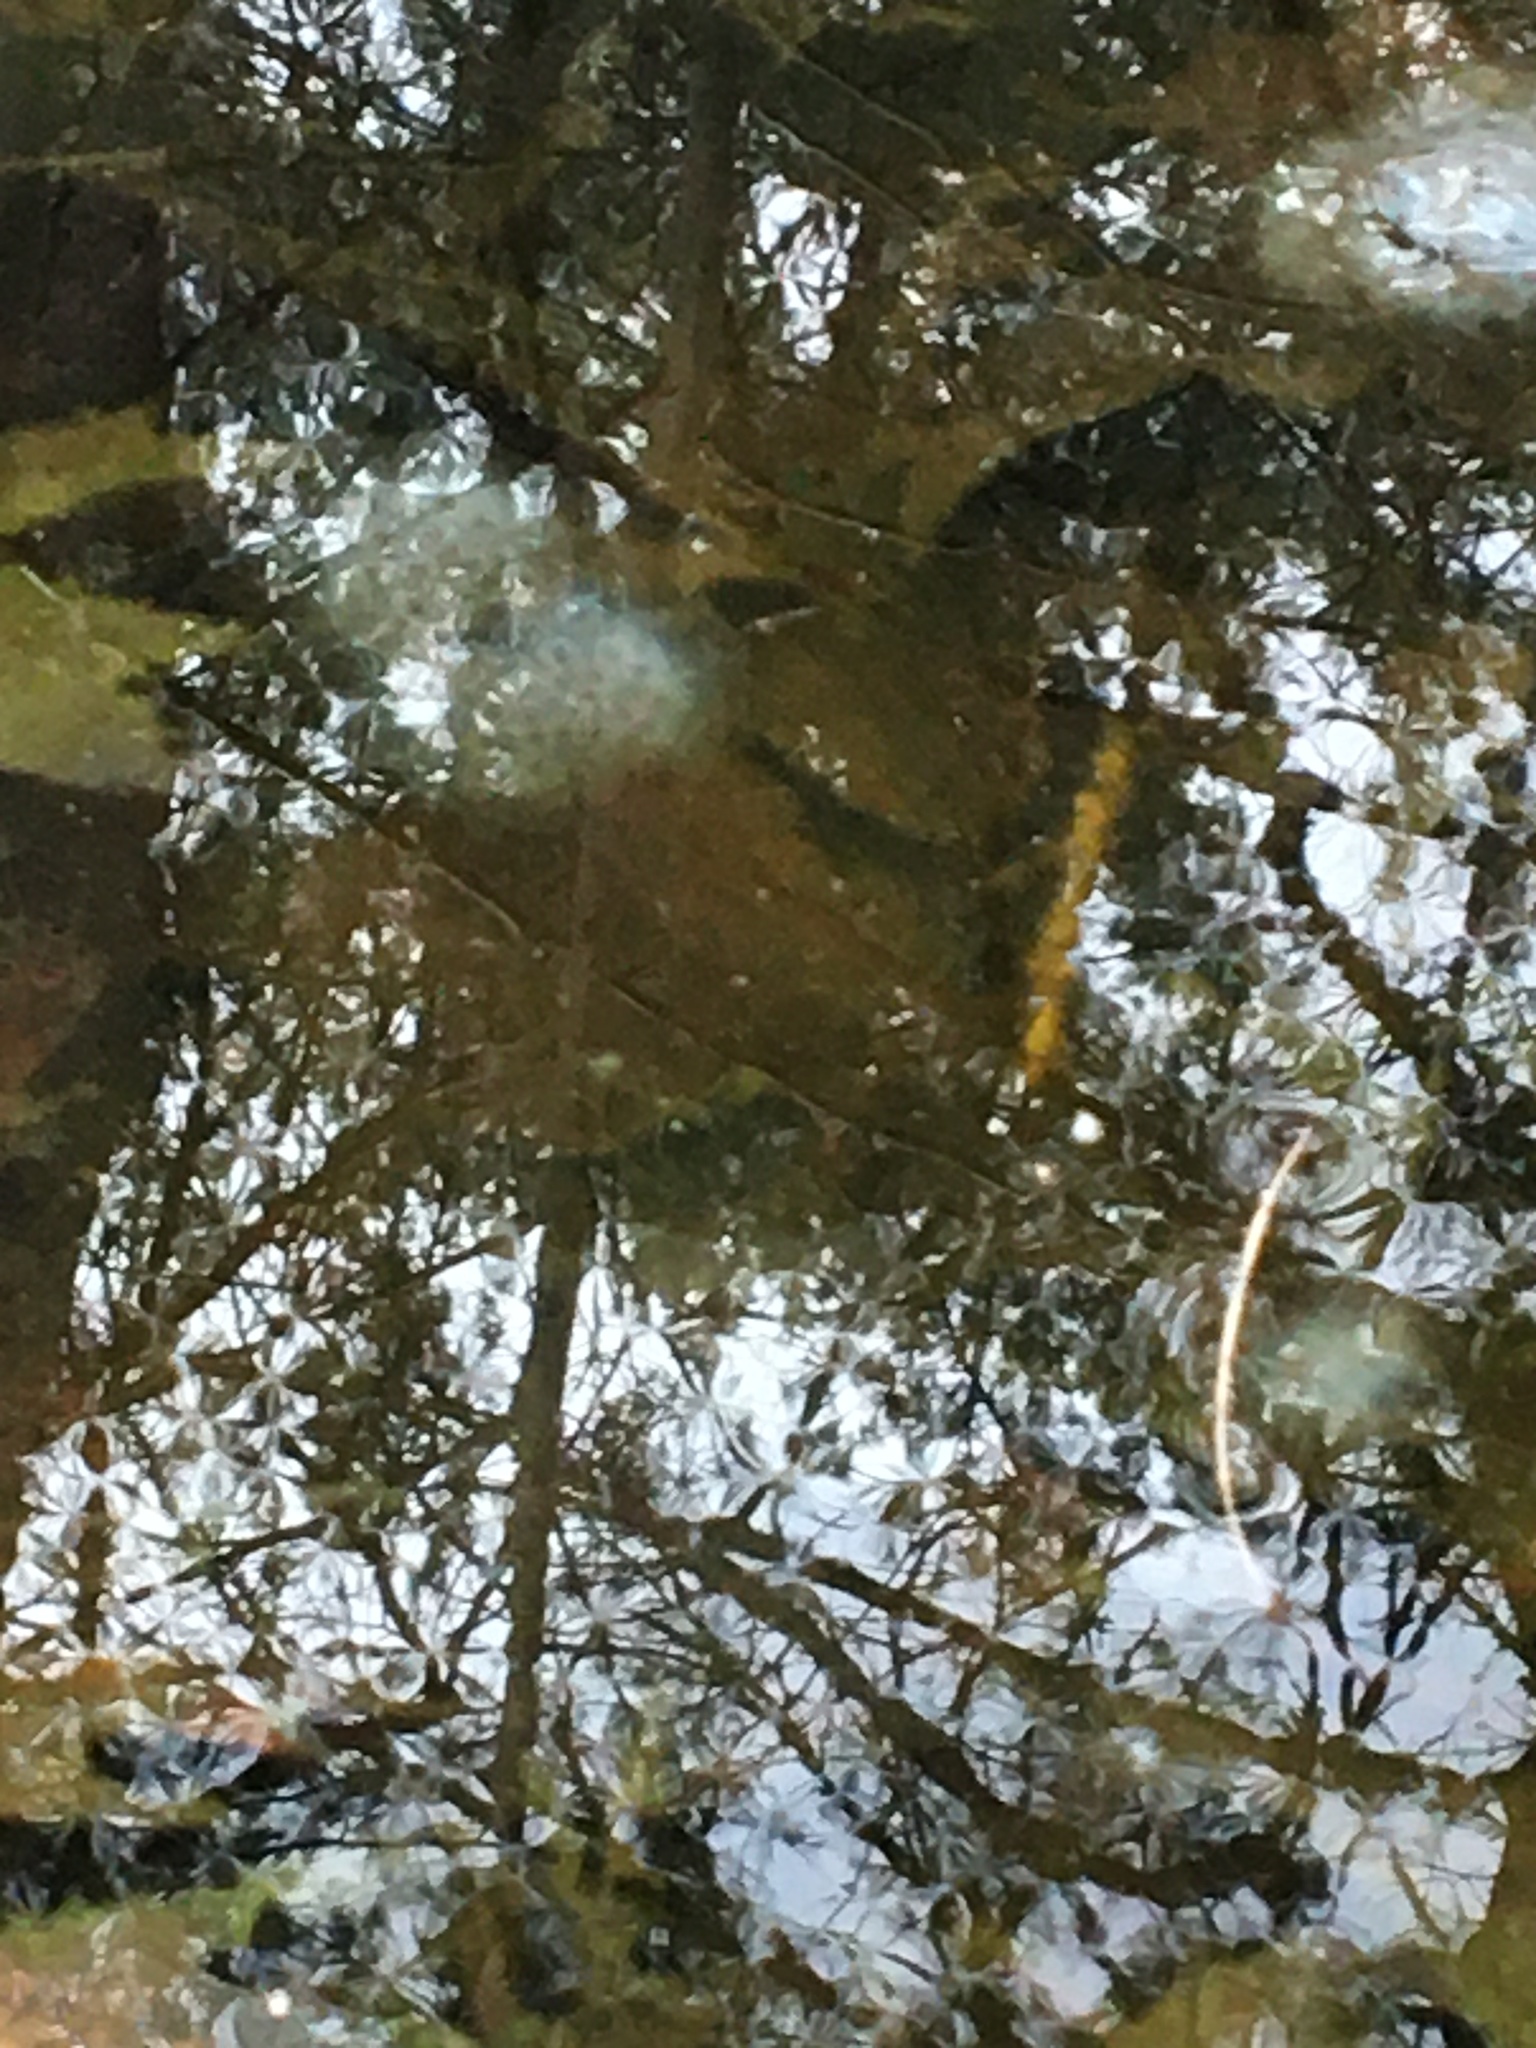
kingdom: Animalia
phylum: Chordata
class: Amphibia
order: Caudata
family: Ambystomatidae
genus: Ambystoma
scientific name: Ambystoma maculatum
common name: Spotted salamander
